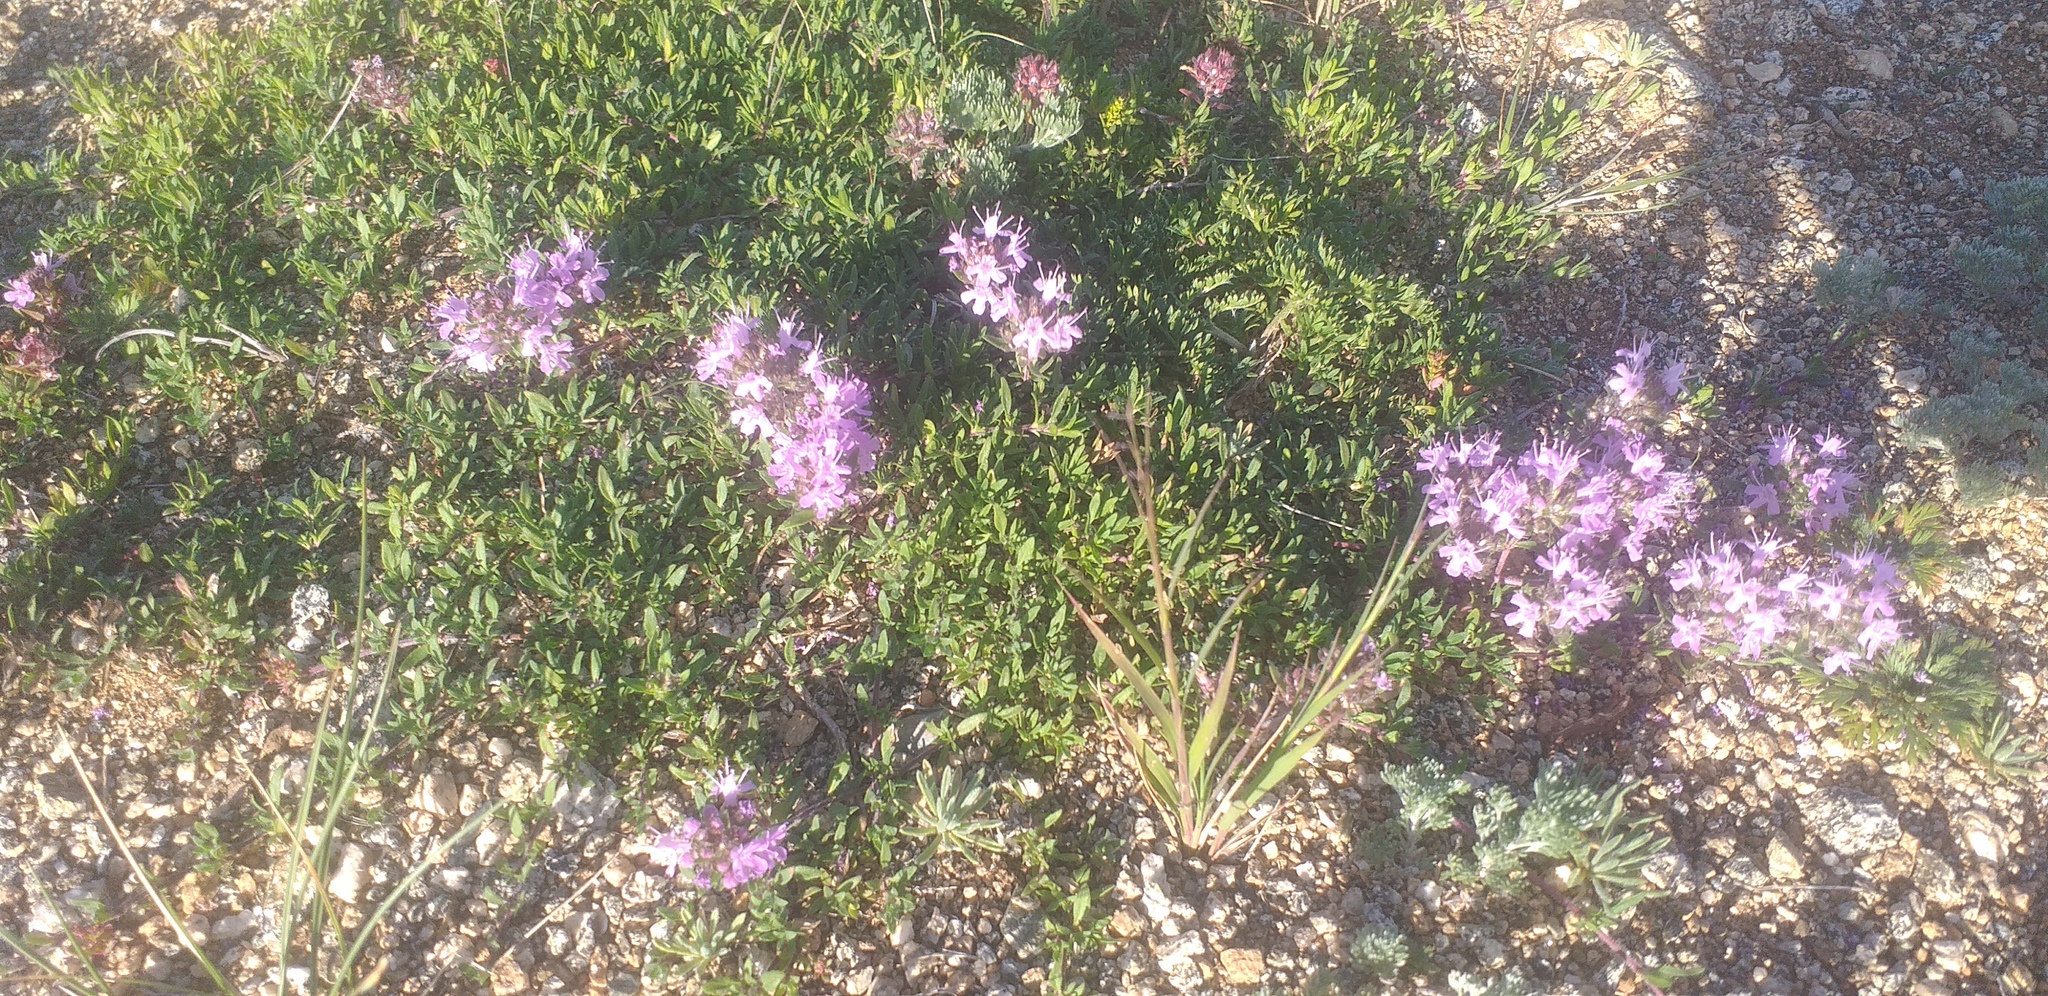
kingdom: Plantae
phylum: Tracheophyta
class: Magnoliopsida
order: Lamiales
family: Lamiaceae
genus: Thymus
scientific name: Thymus baicalensis
